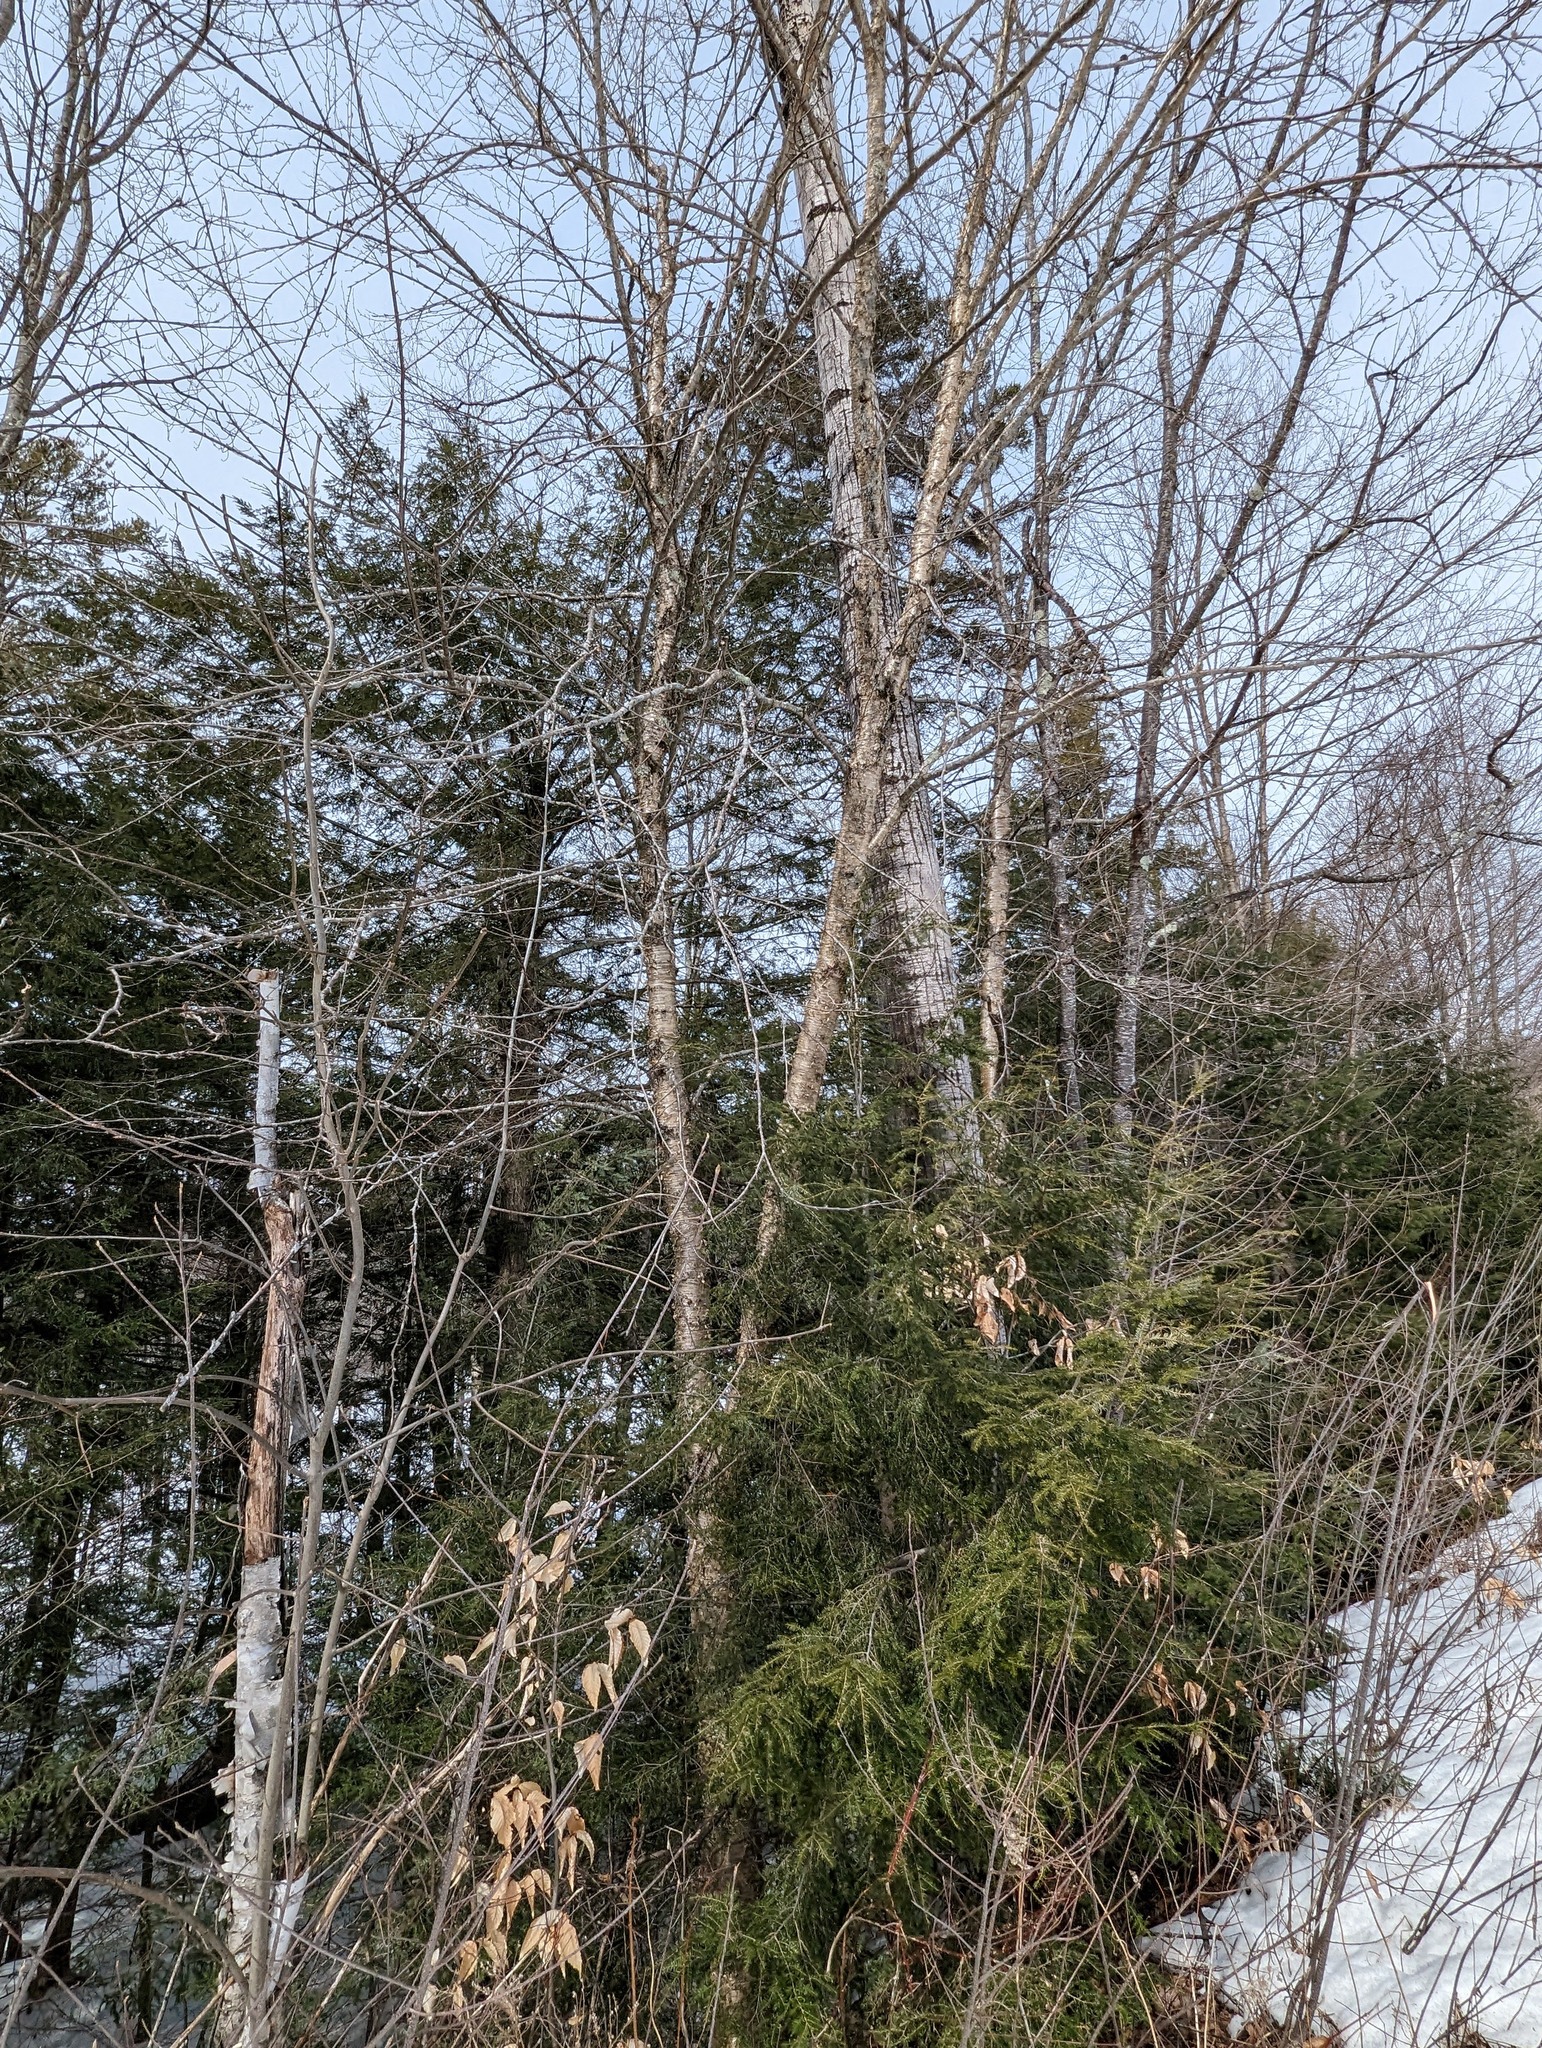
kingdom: Plantae
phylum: Tracheophyta
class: Magnoliopsida
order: Fagales
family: Betulaceae
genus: Betula
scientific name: Betula alleghaniensis
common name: Yellow birch
